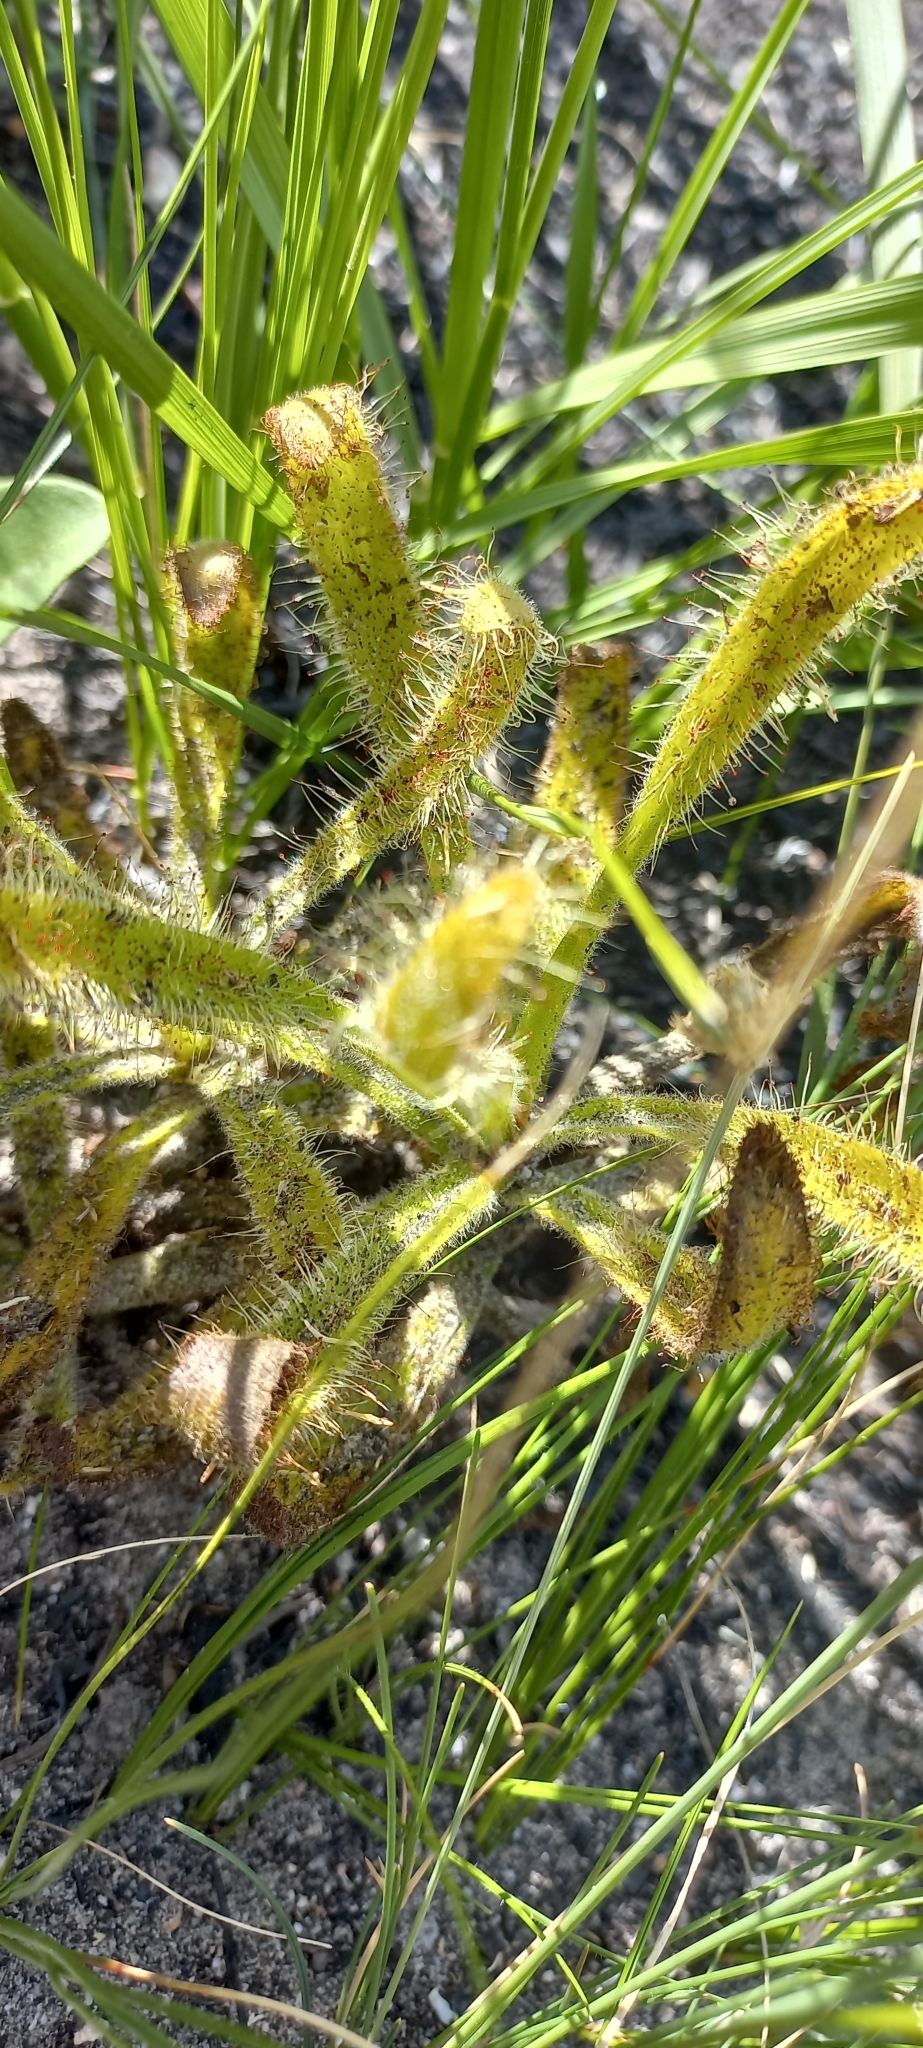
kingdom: Plantae
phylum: Tracheophyta
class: Magnoliopsida
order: Caryophyllales
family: Droseraceae
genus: Drosera
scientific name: Drosera hilaris
